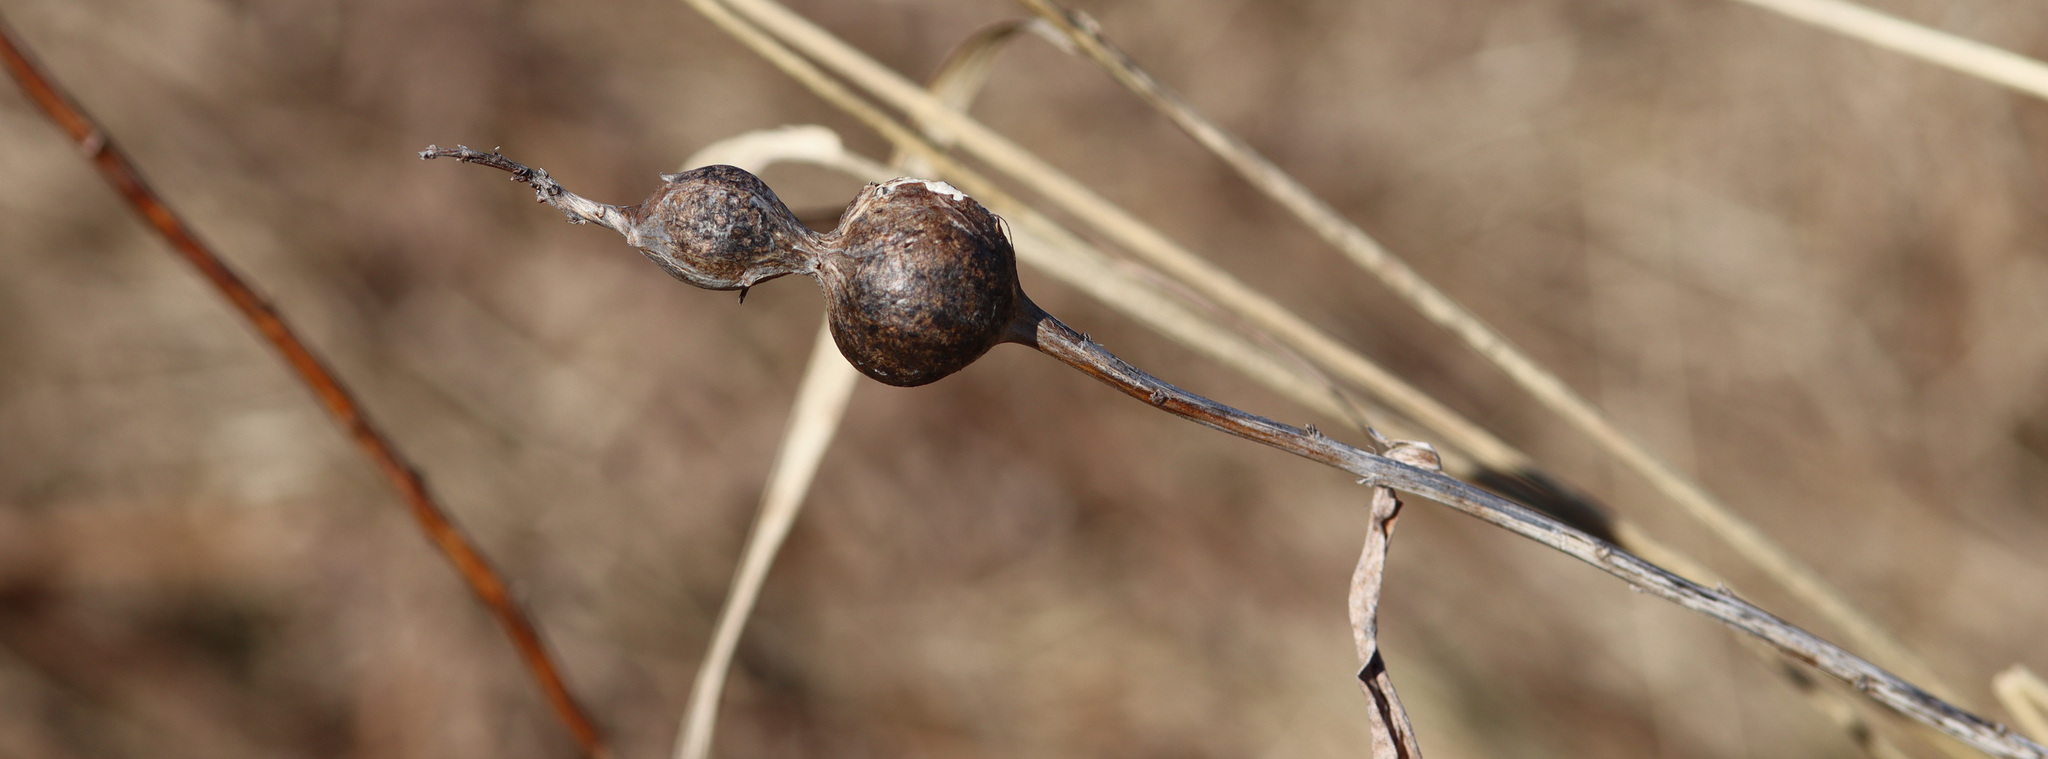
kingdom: Animalia
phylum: Arthropoda
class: Insecta
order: Diptera
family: Tephritidae
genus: Eurosta
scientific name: Eurosta solidaginis
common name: Goldenrod gall fly
